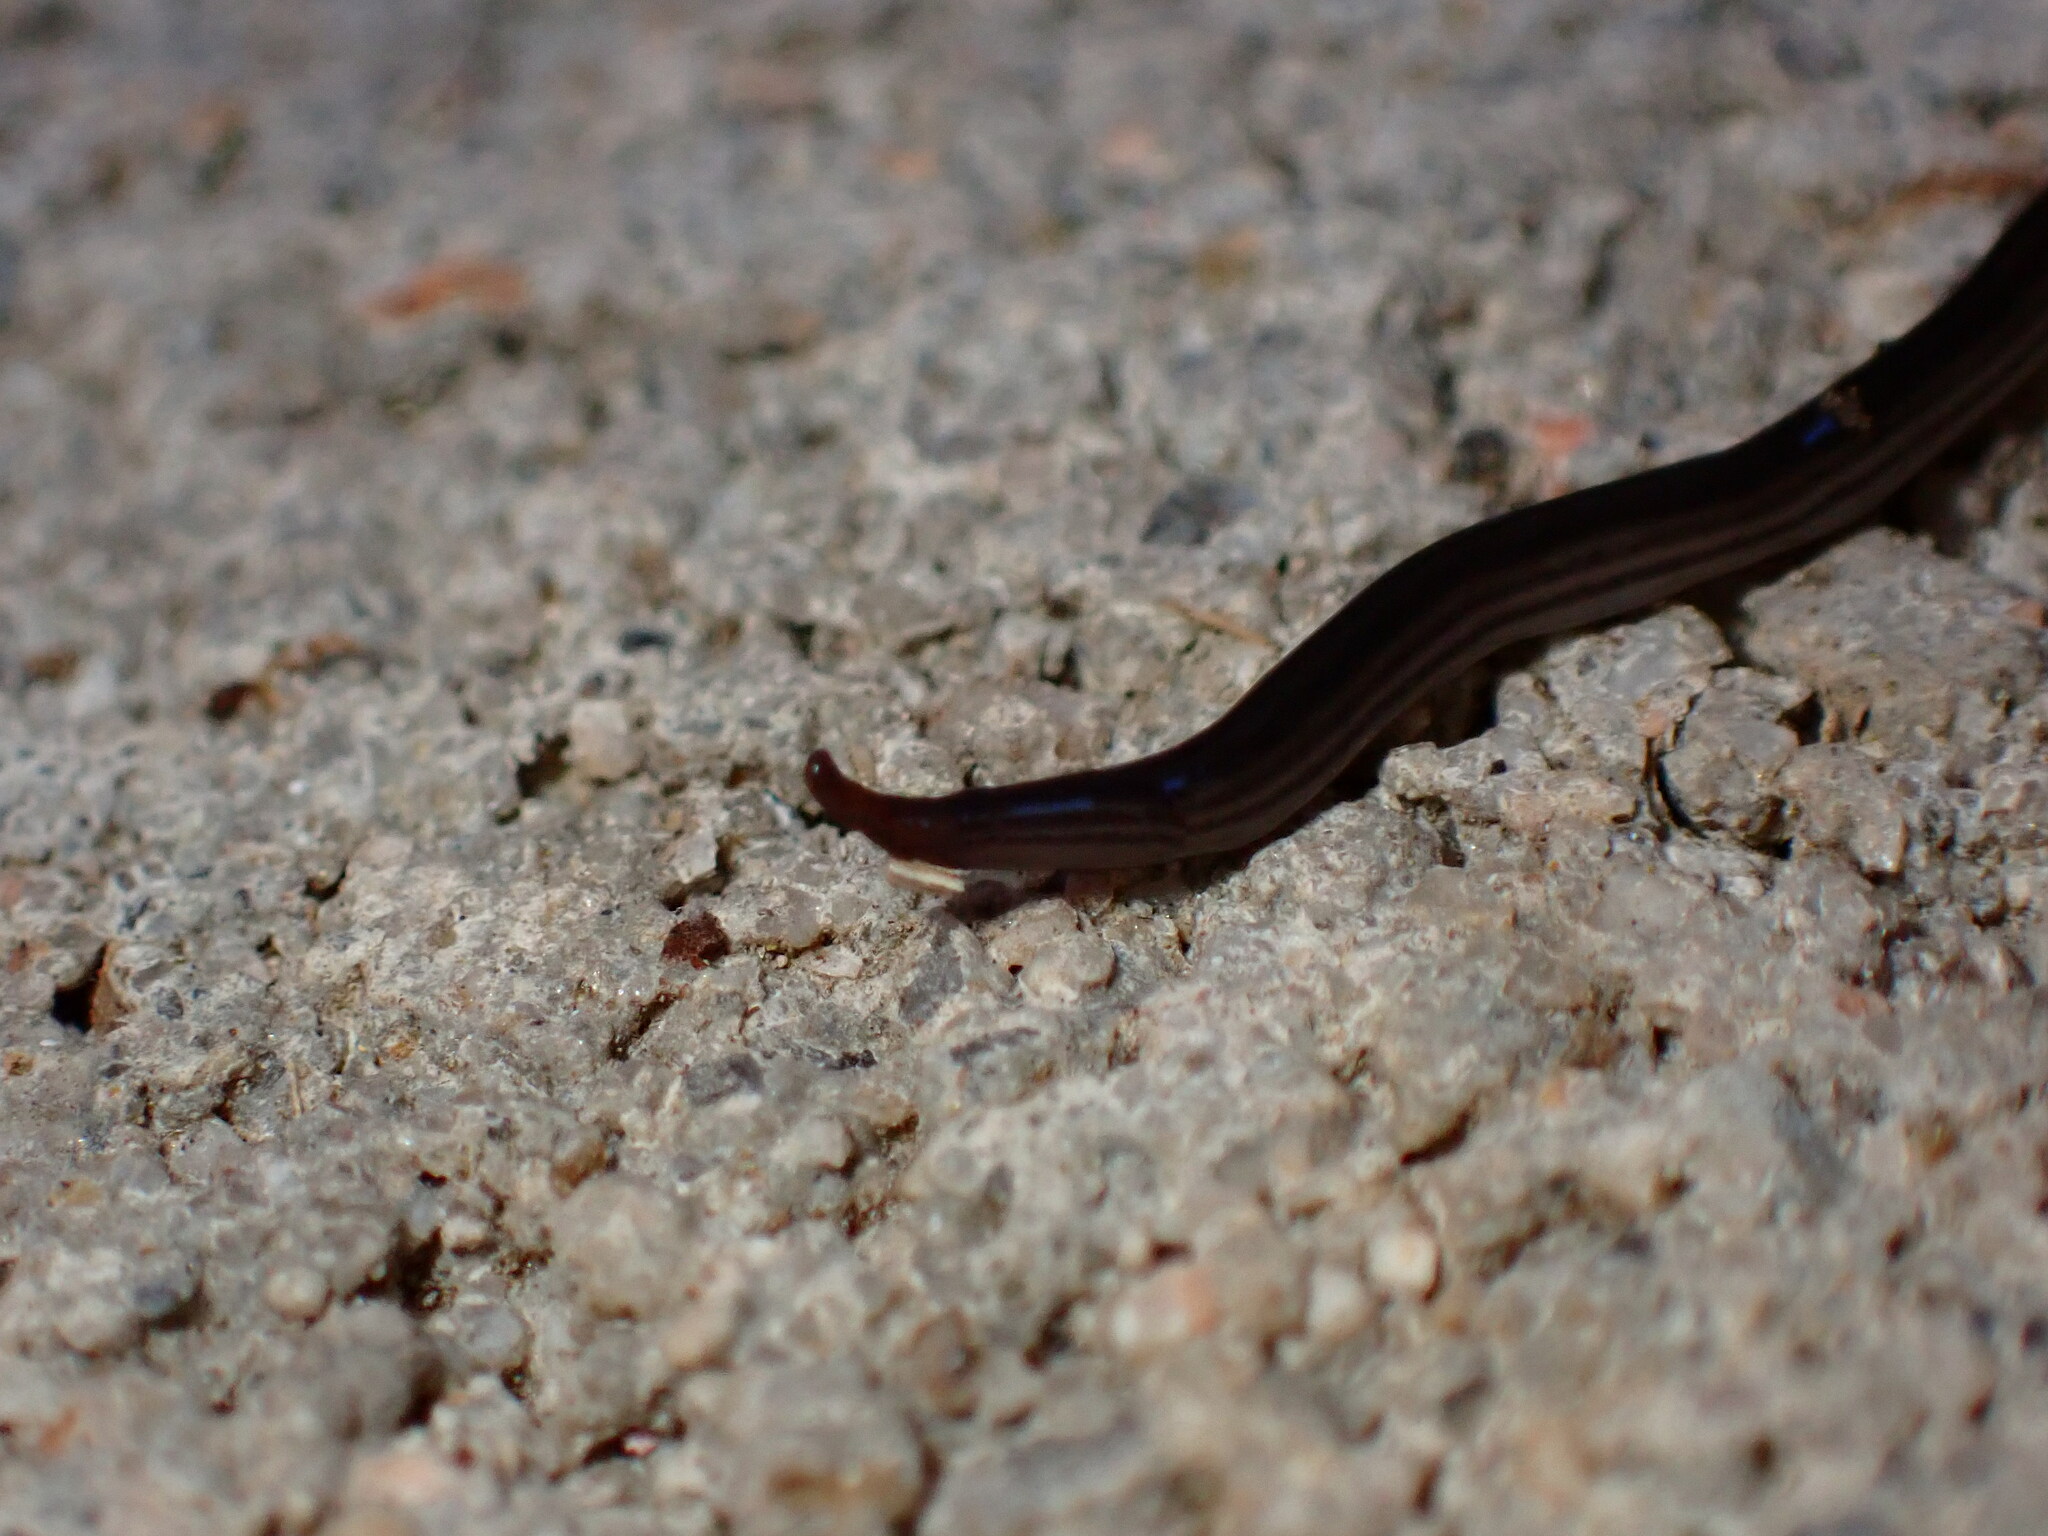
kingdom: Animalia
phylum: Platyhelminthes
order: Tricladida
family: Geoplanidae
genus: Endeavouria
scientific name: Endeavouria septemlineata
